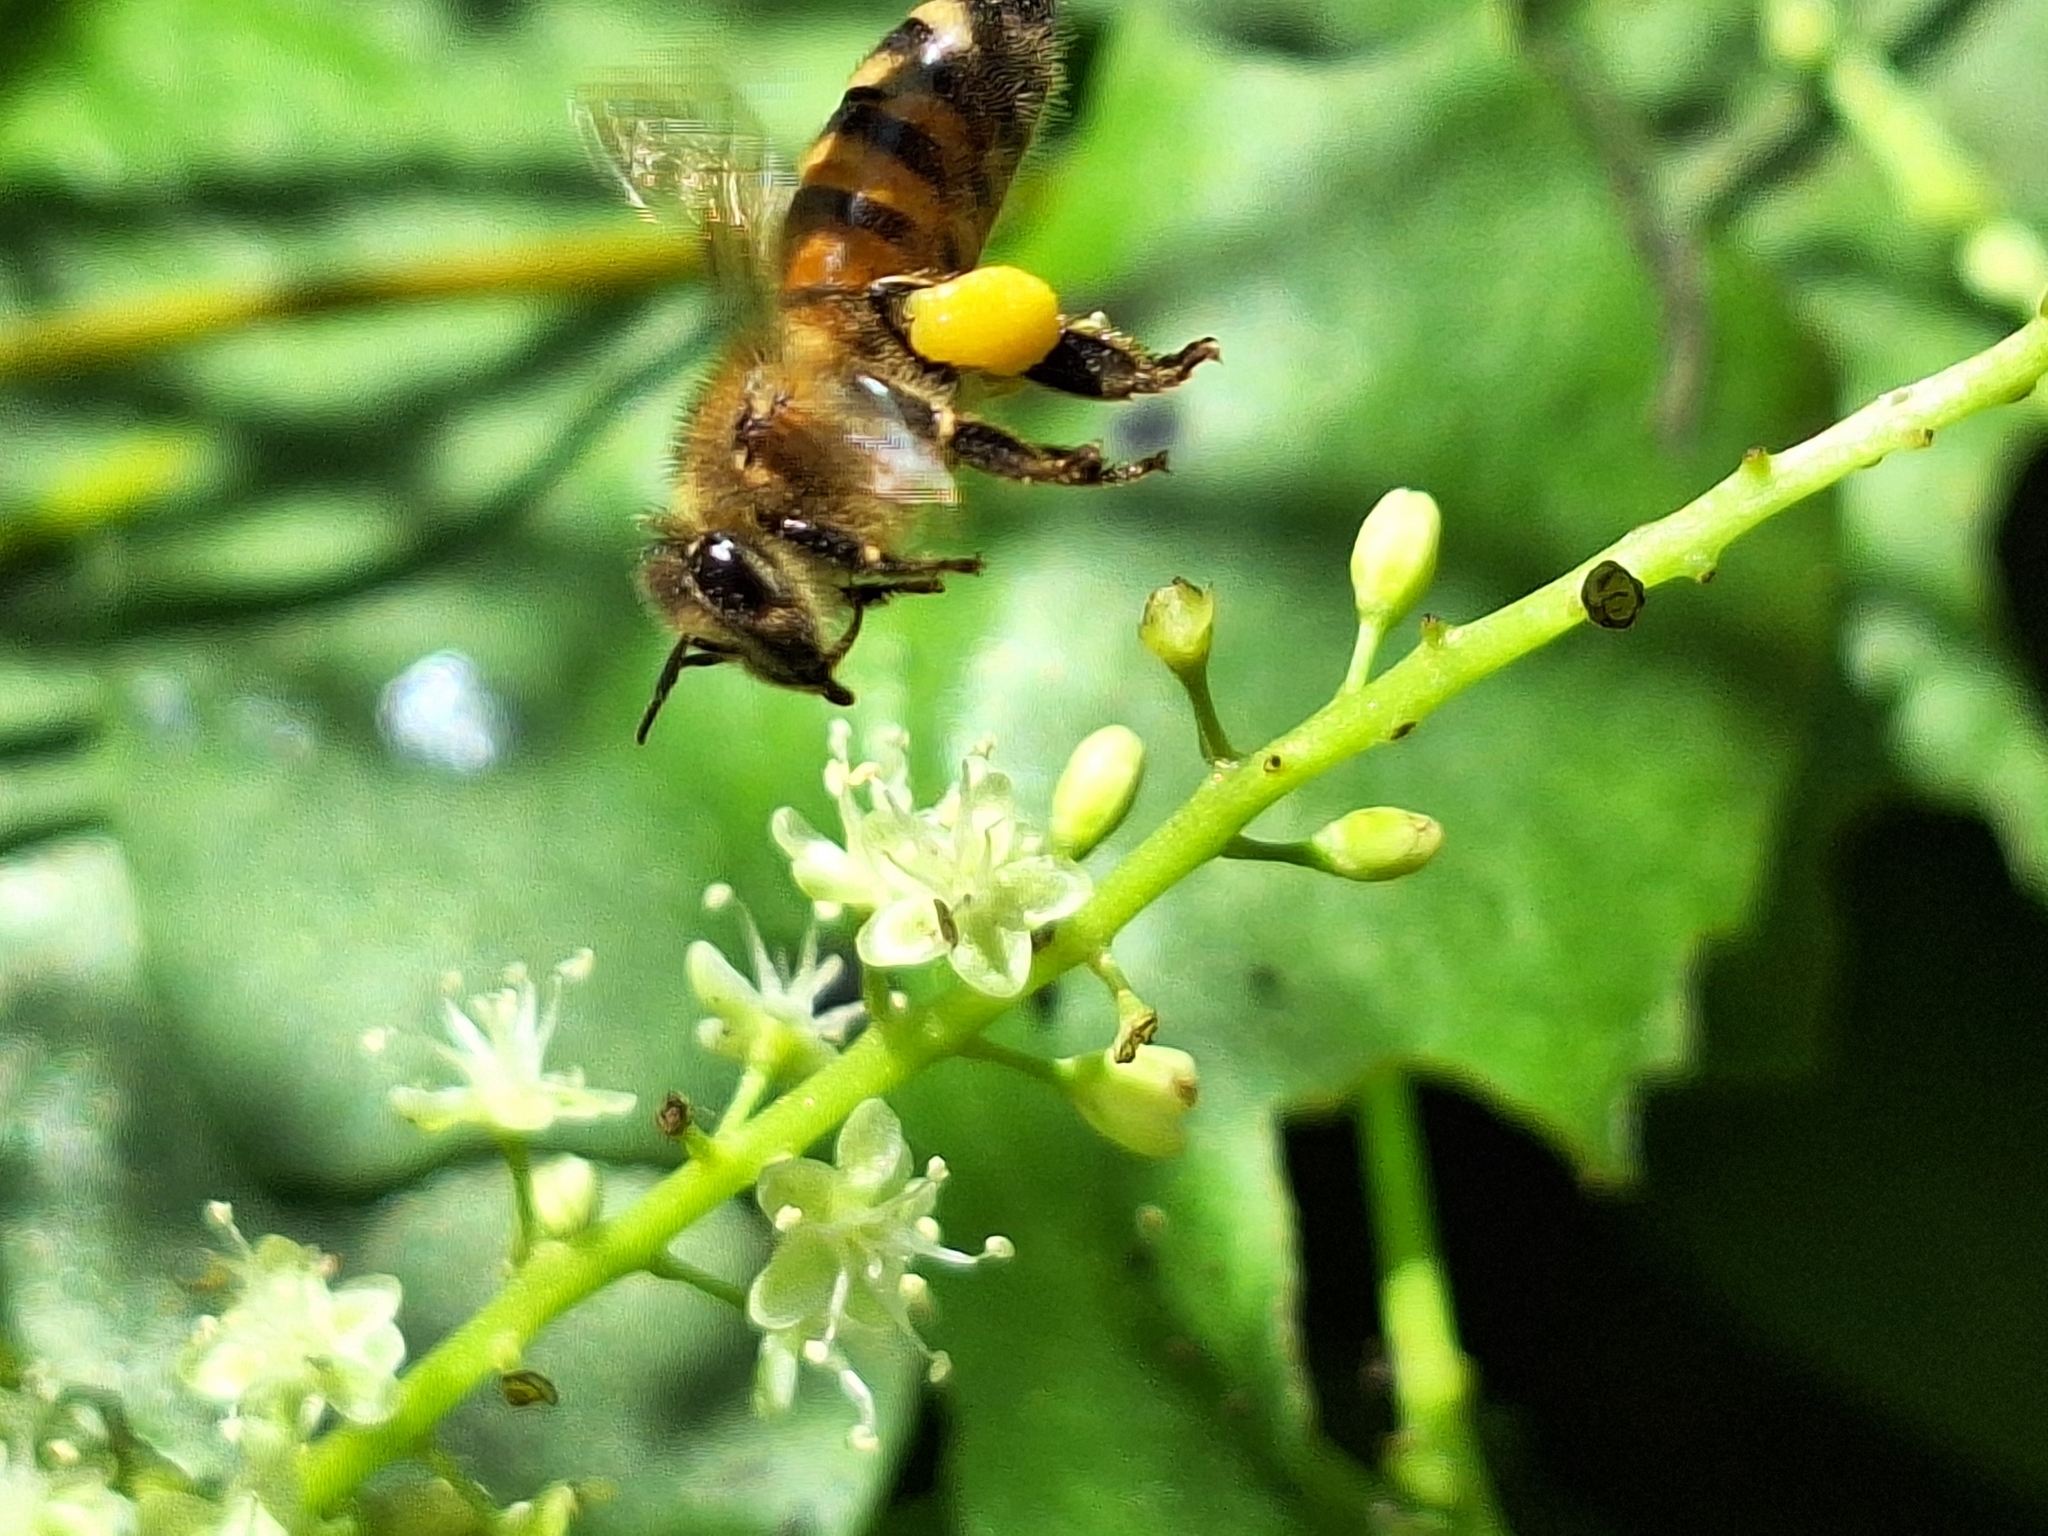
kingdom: Animalia
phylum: Arthropoda
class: Insecta
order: Hymenoptera
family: Apidae
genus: Apis
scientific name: Apis mellifera
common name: Honey bee
